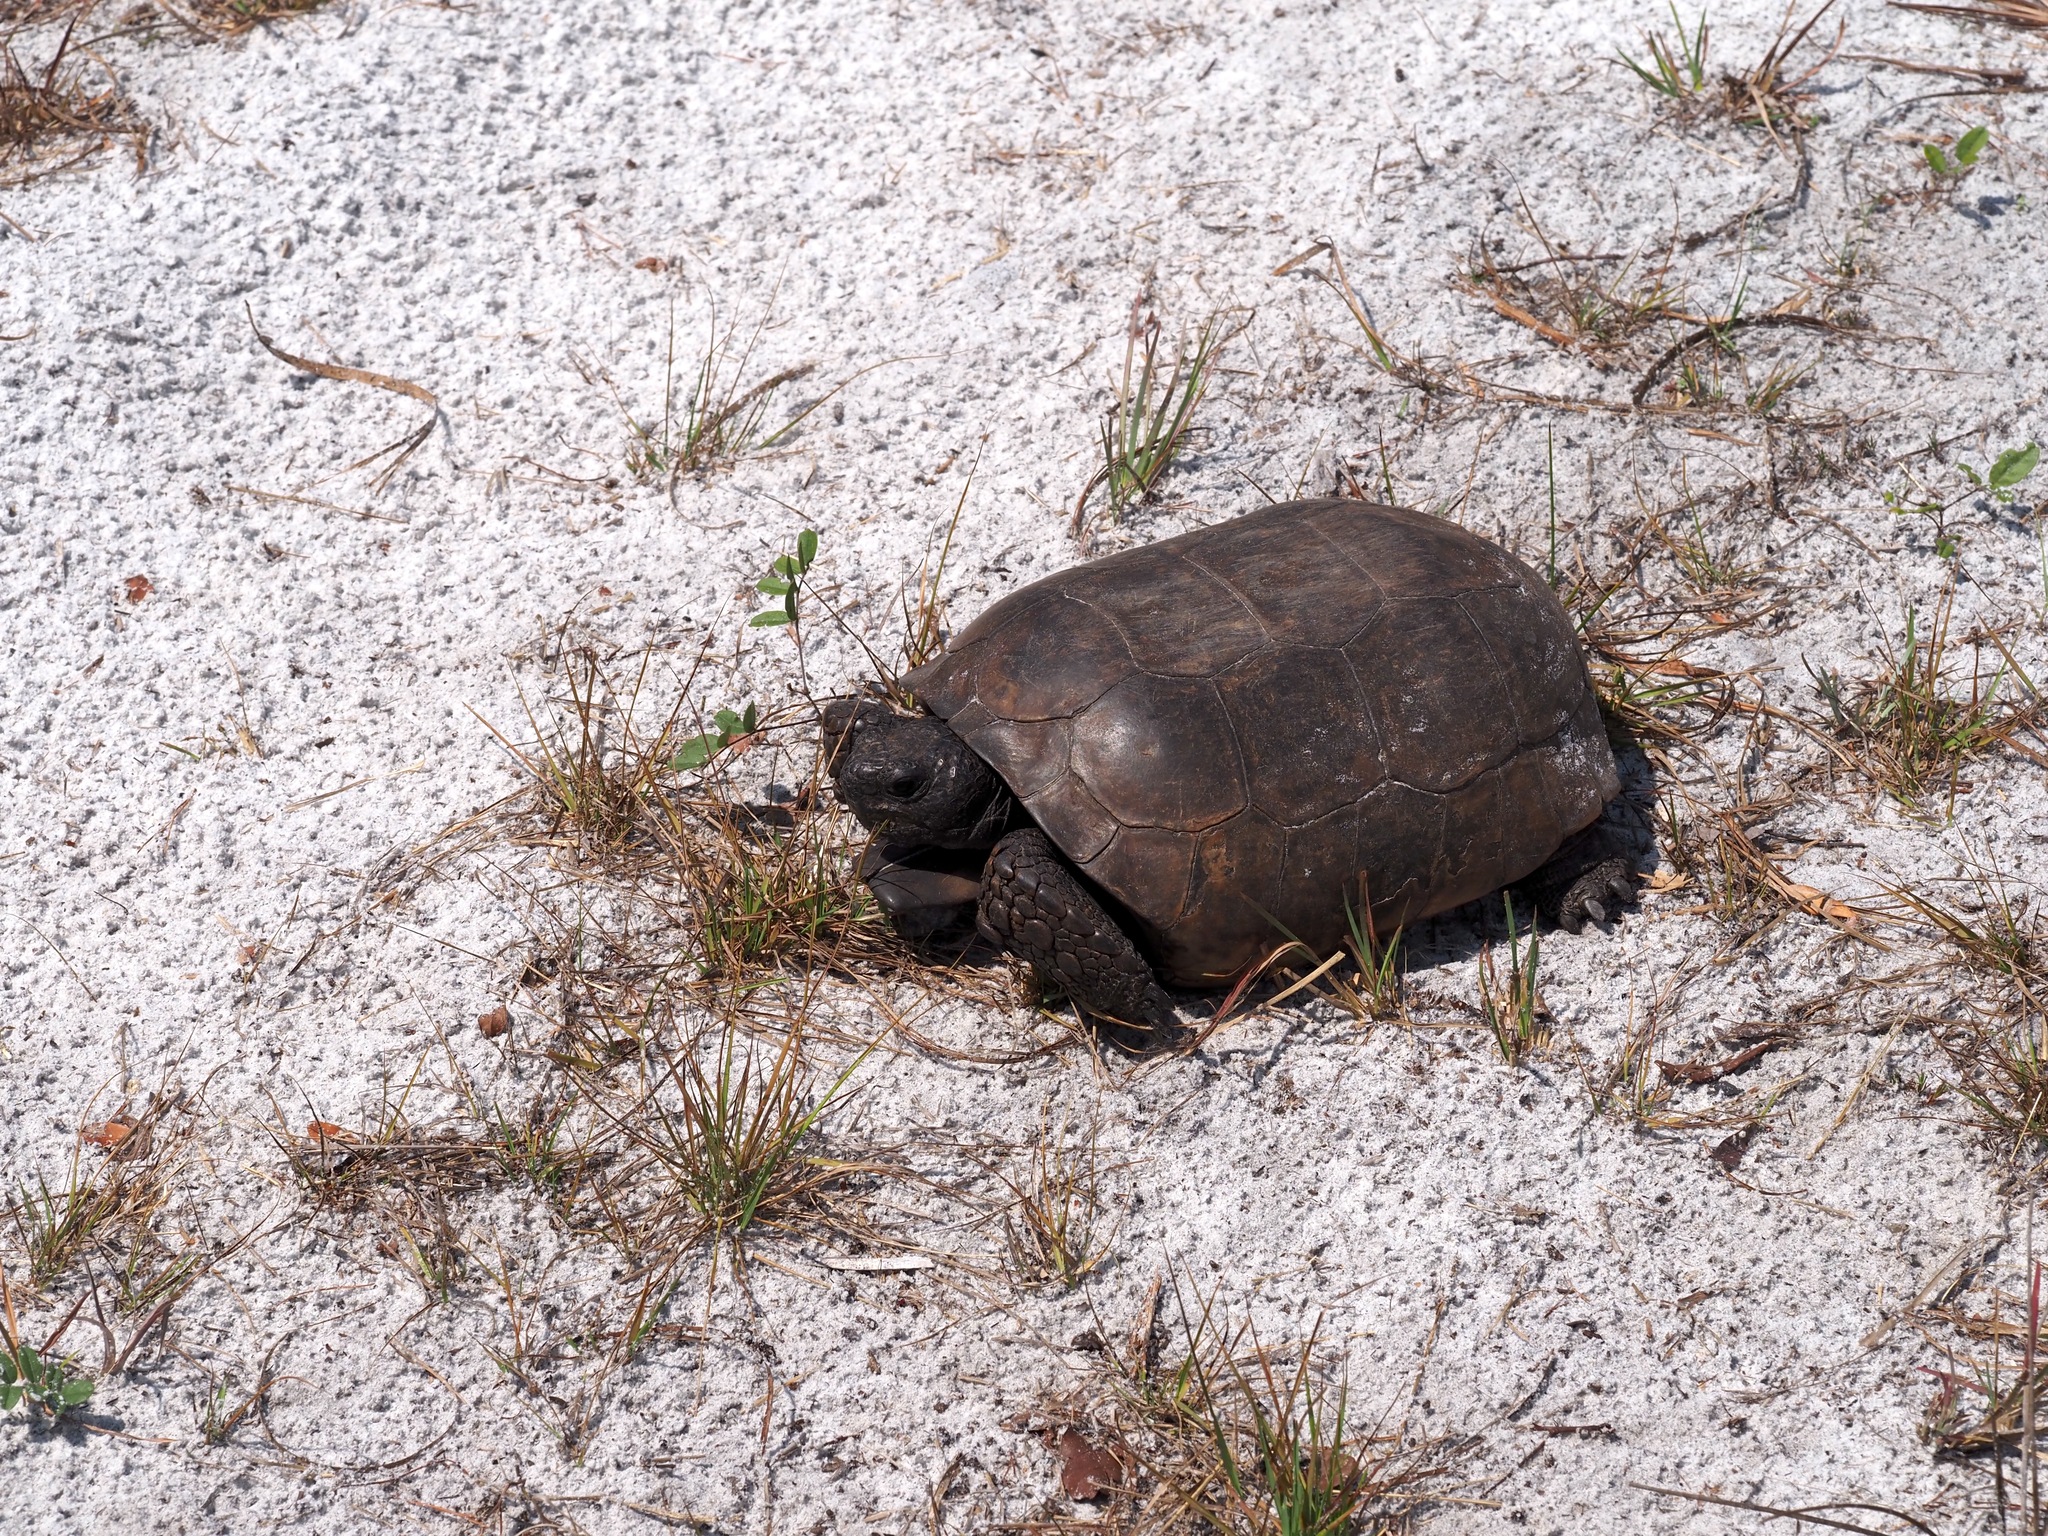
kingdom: Animalia
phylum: Chordata
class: Testudines
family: Testudinidae
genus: Gopherus
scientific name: Gopherus polyphemus
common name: Florida gopher tortoise
